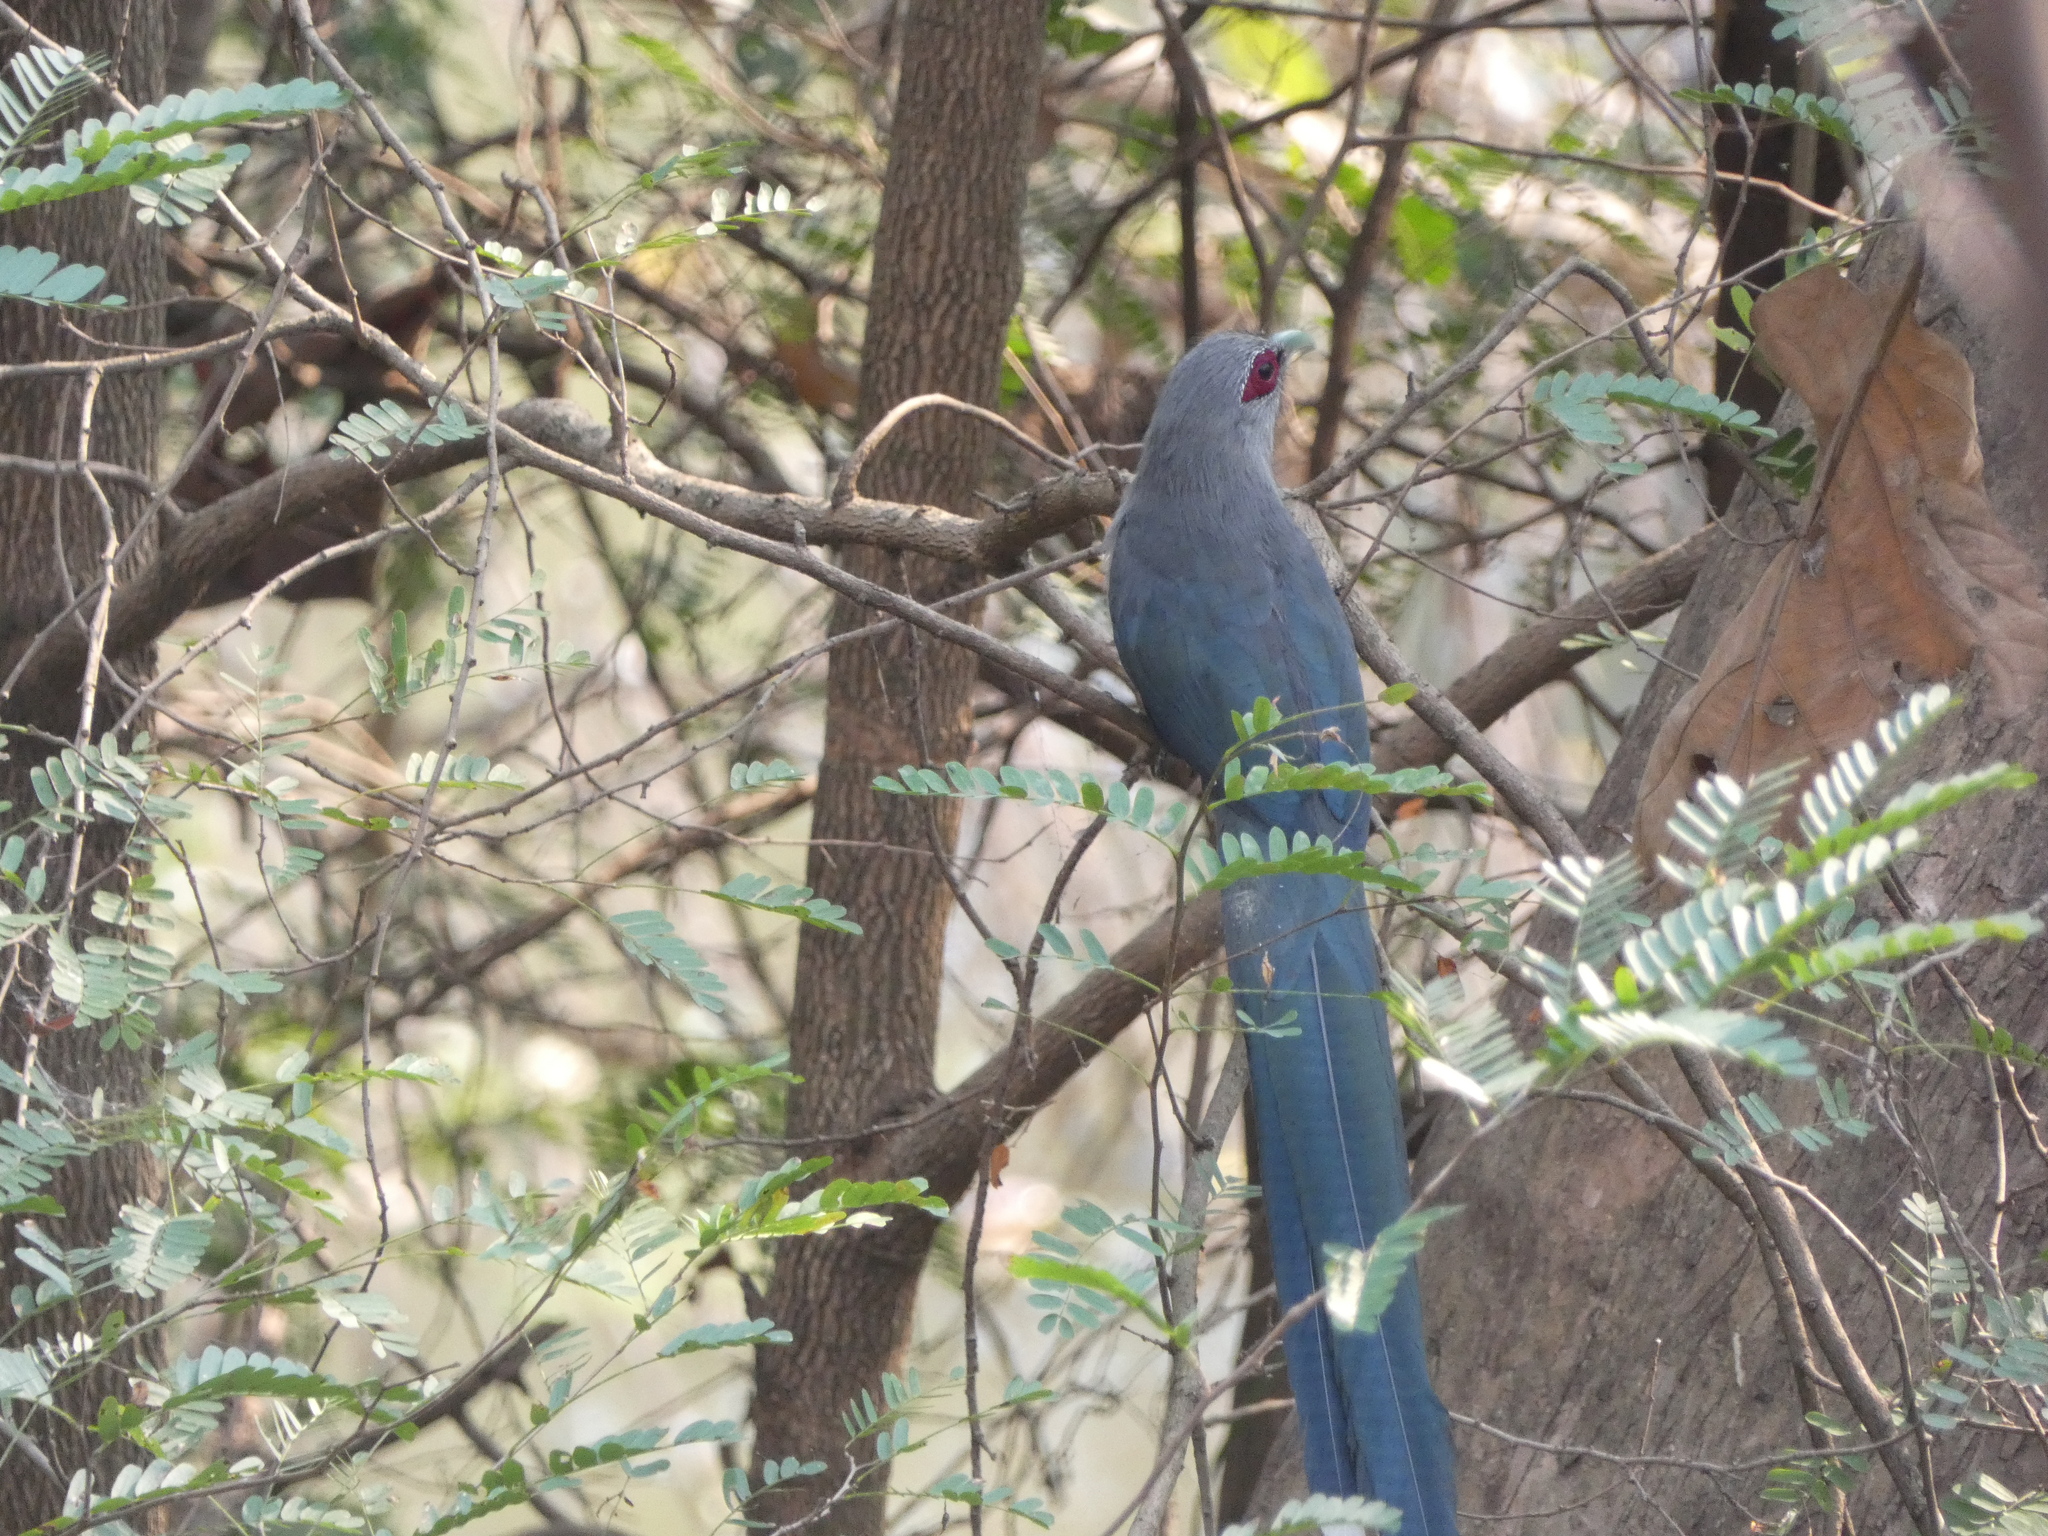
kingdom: Animalia
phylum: Chordata
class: Aves
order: Cuculiformes
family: Cuculidae
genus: Rhopodytes
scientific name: Rhopodytes tristis
